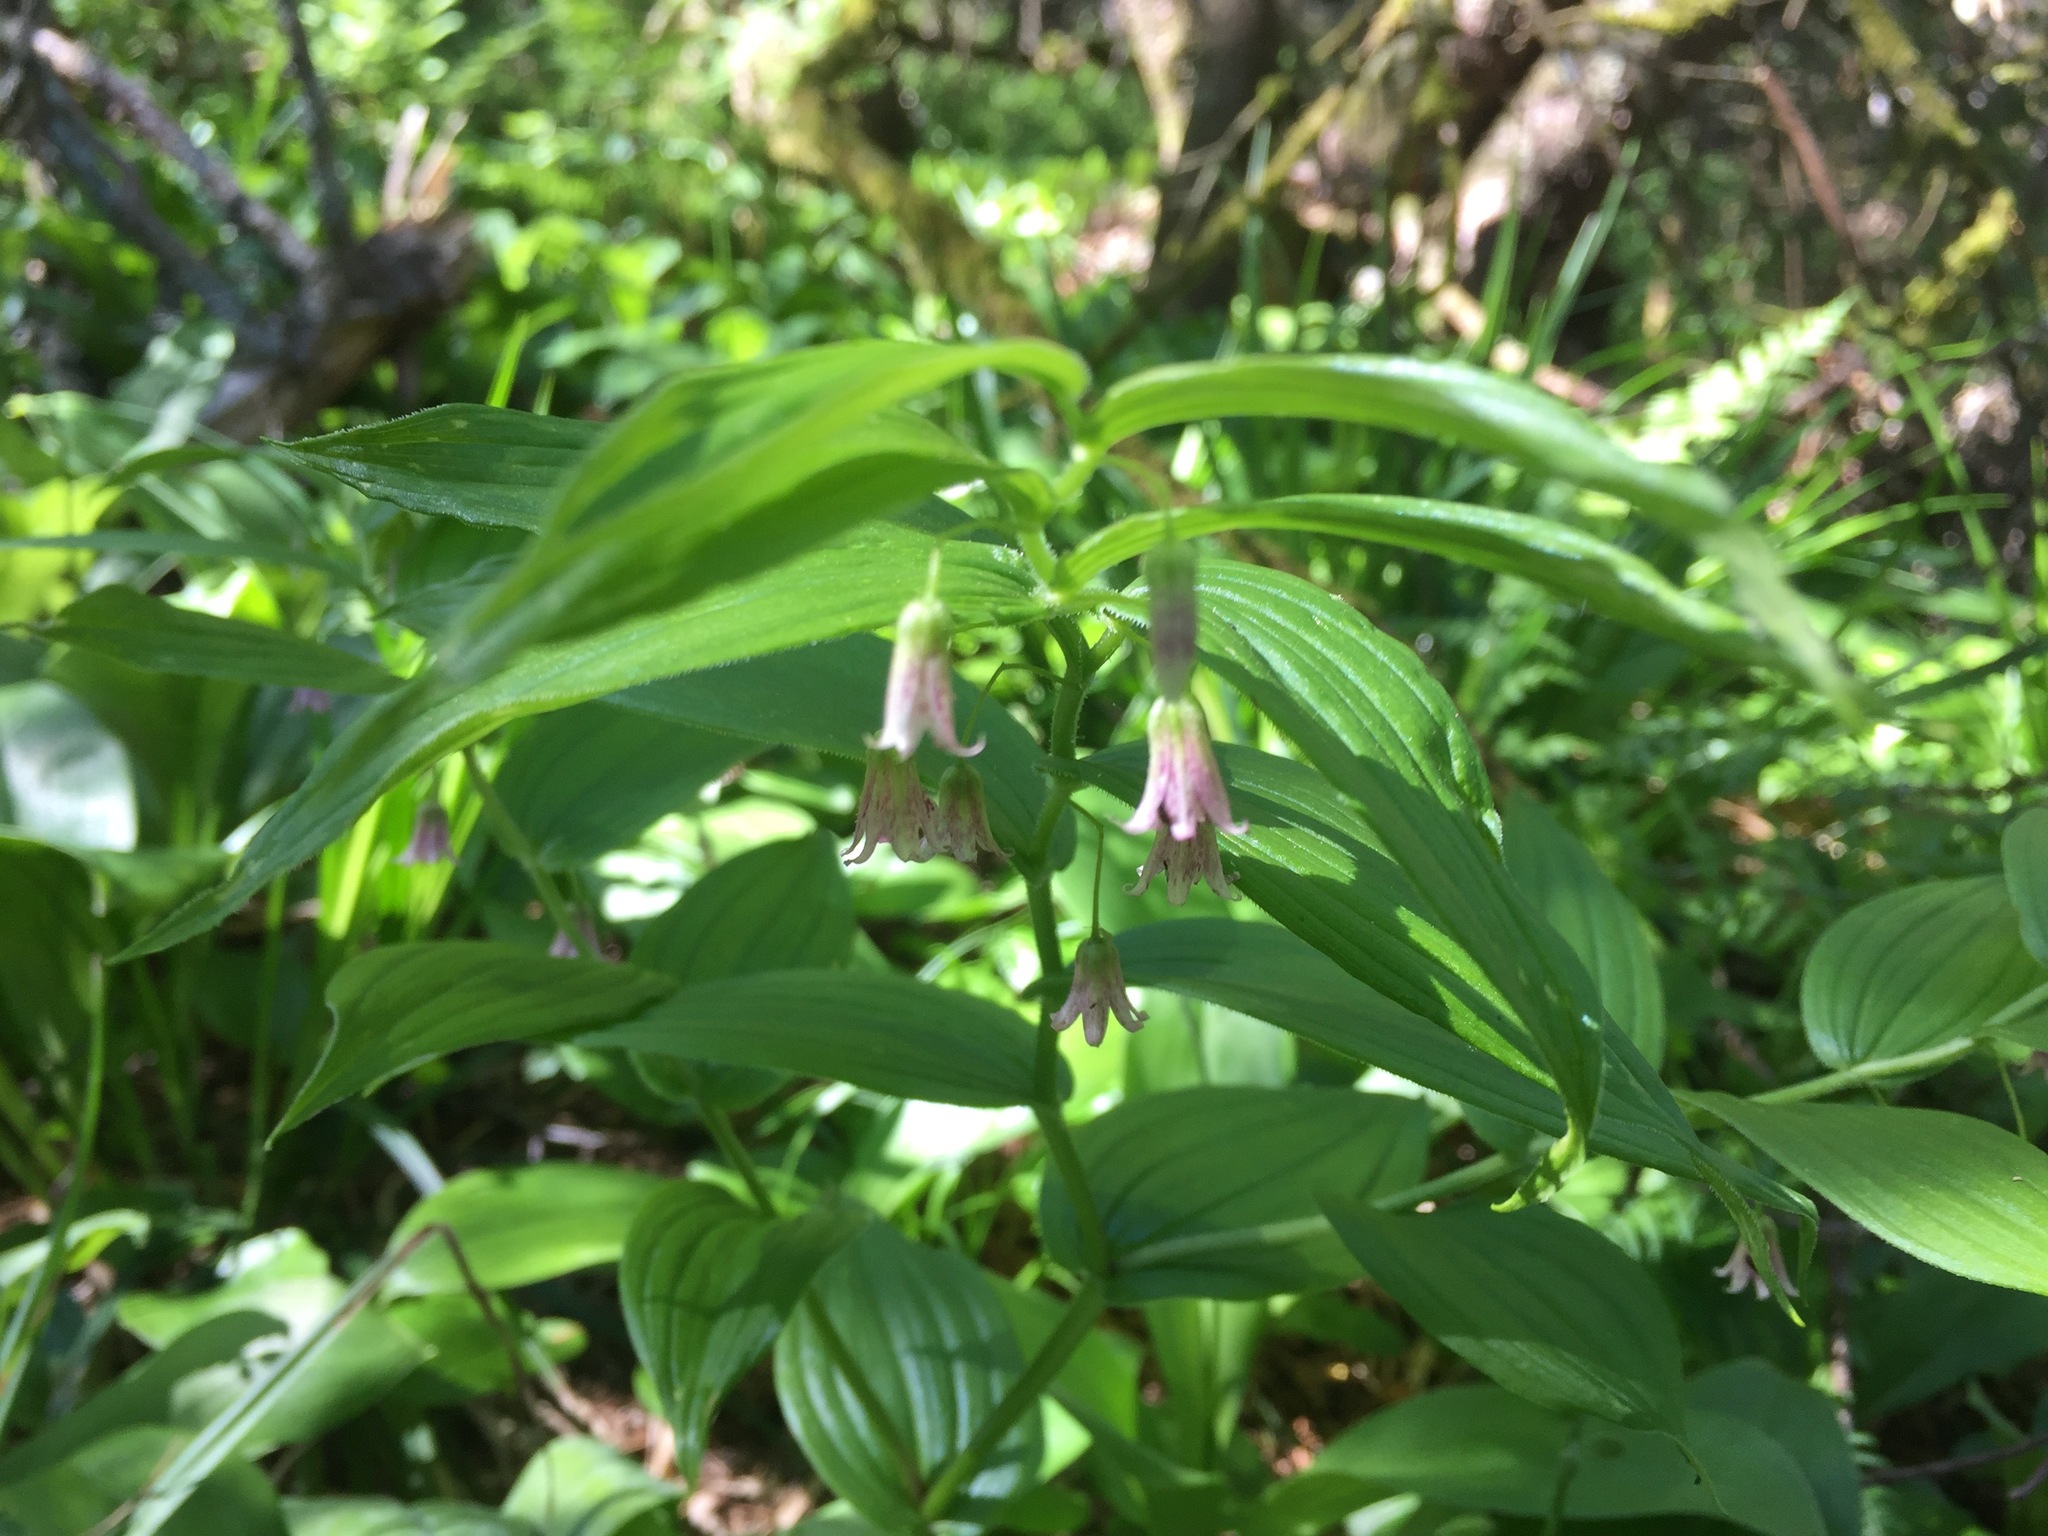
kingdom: Plantae
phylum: Tracheophyta
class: Liliopsida
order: Liliales
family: Liliaceae
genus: Streptopus
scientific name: Streptopus lanceolatus
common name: Rose mandarin
